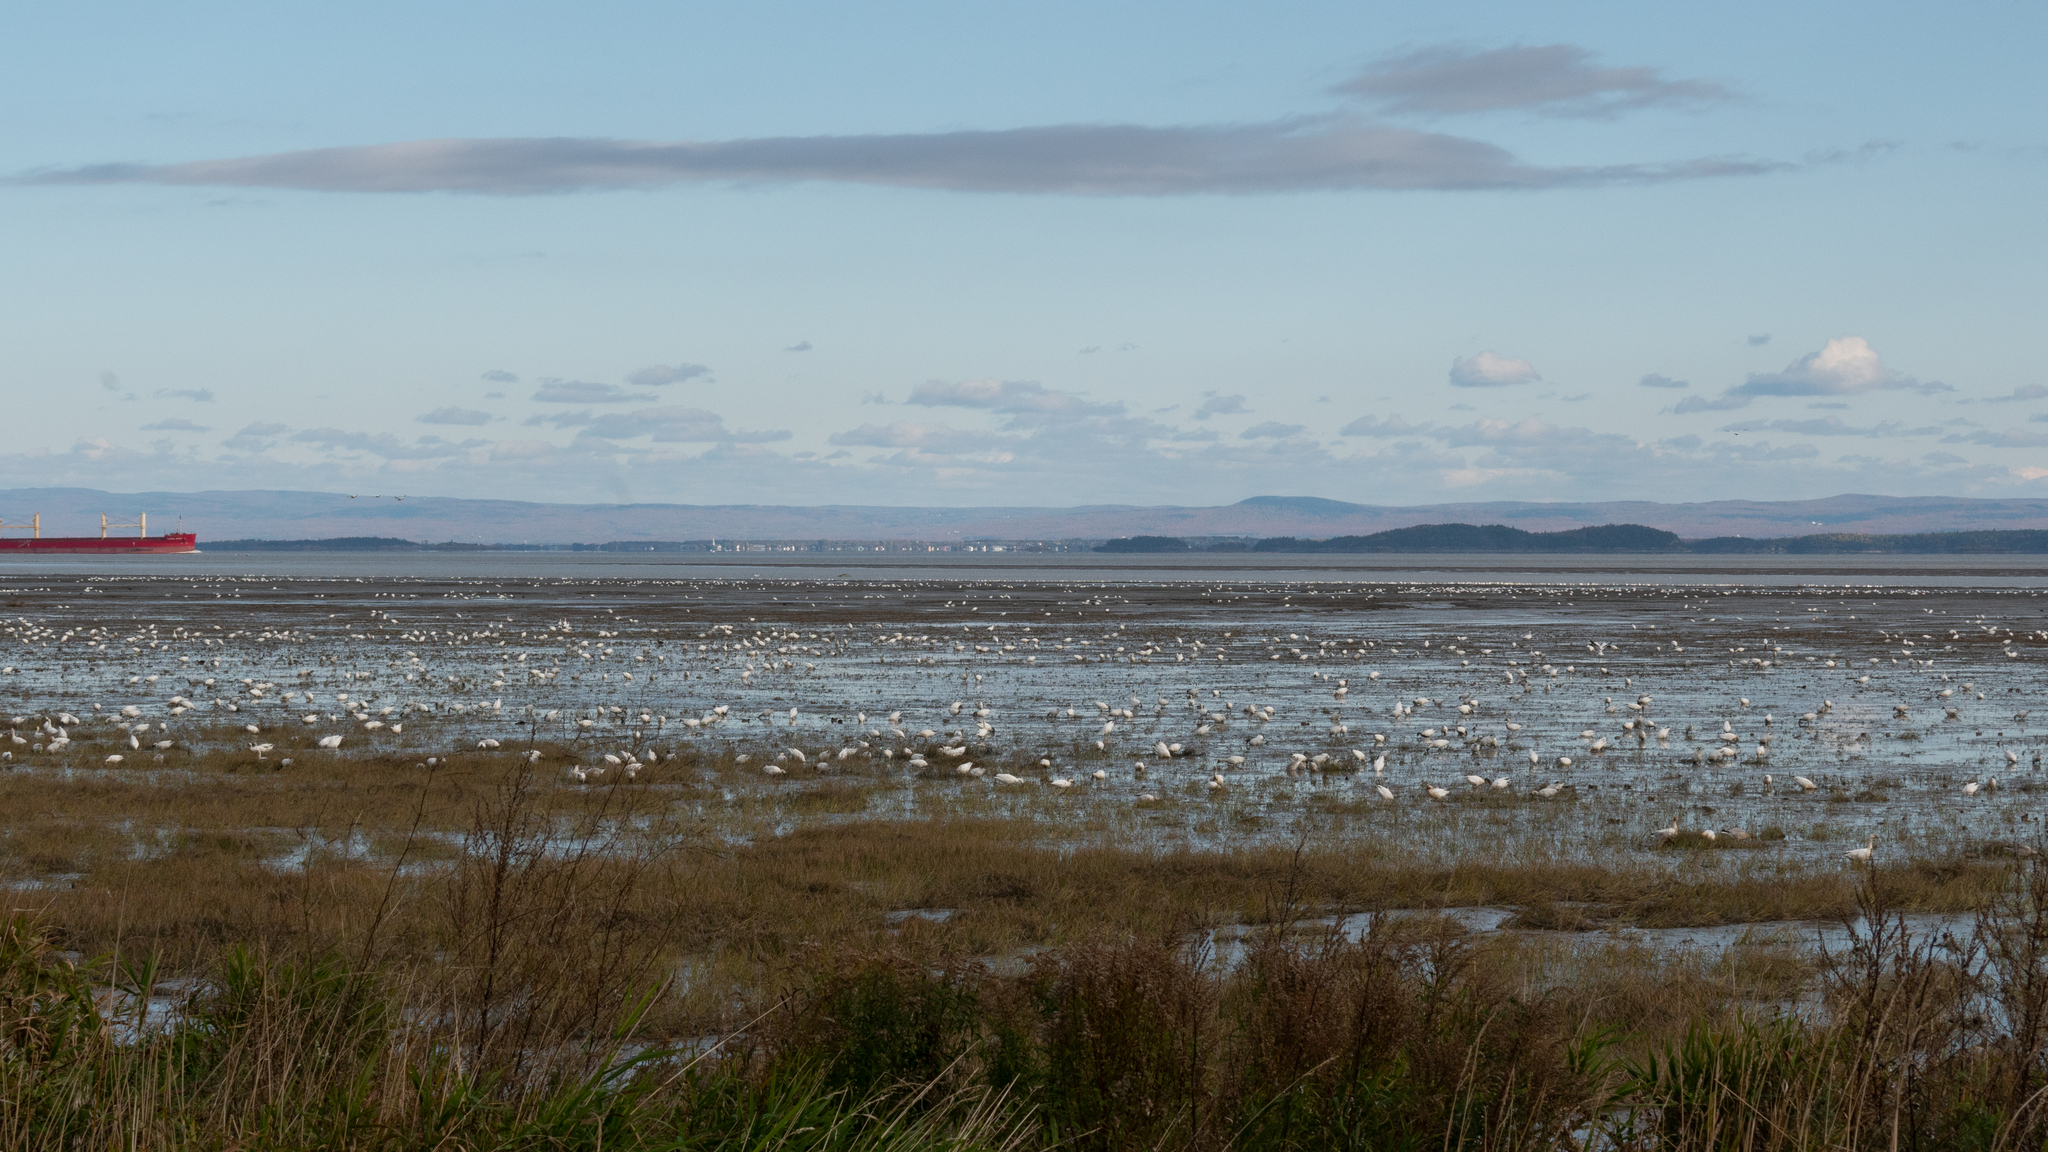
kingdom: Animalia
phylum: Chordata
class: Aves
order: Anseriformes
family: Anatidae
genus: Anser
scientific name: Anser caerulescens
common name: Snow goose
